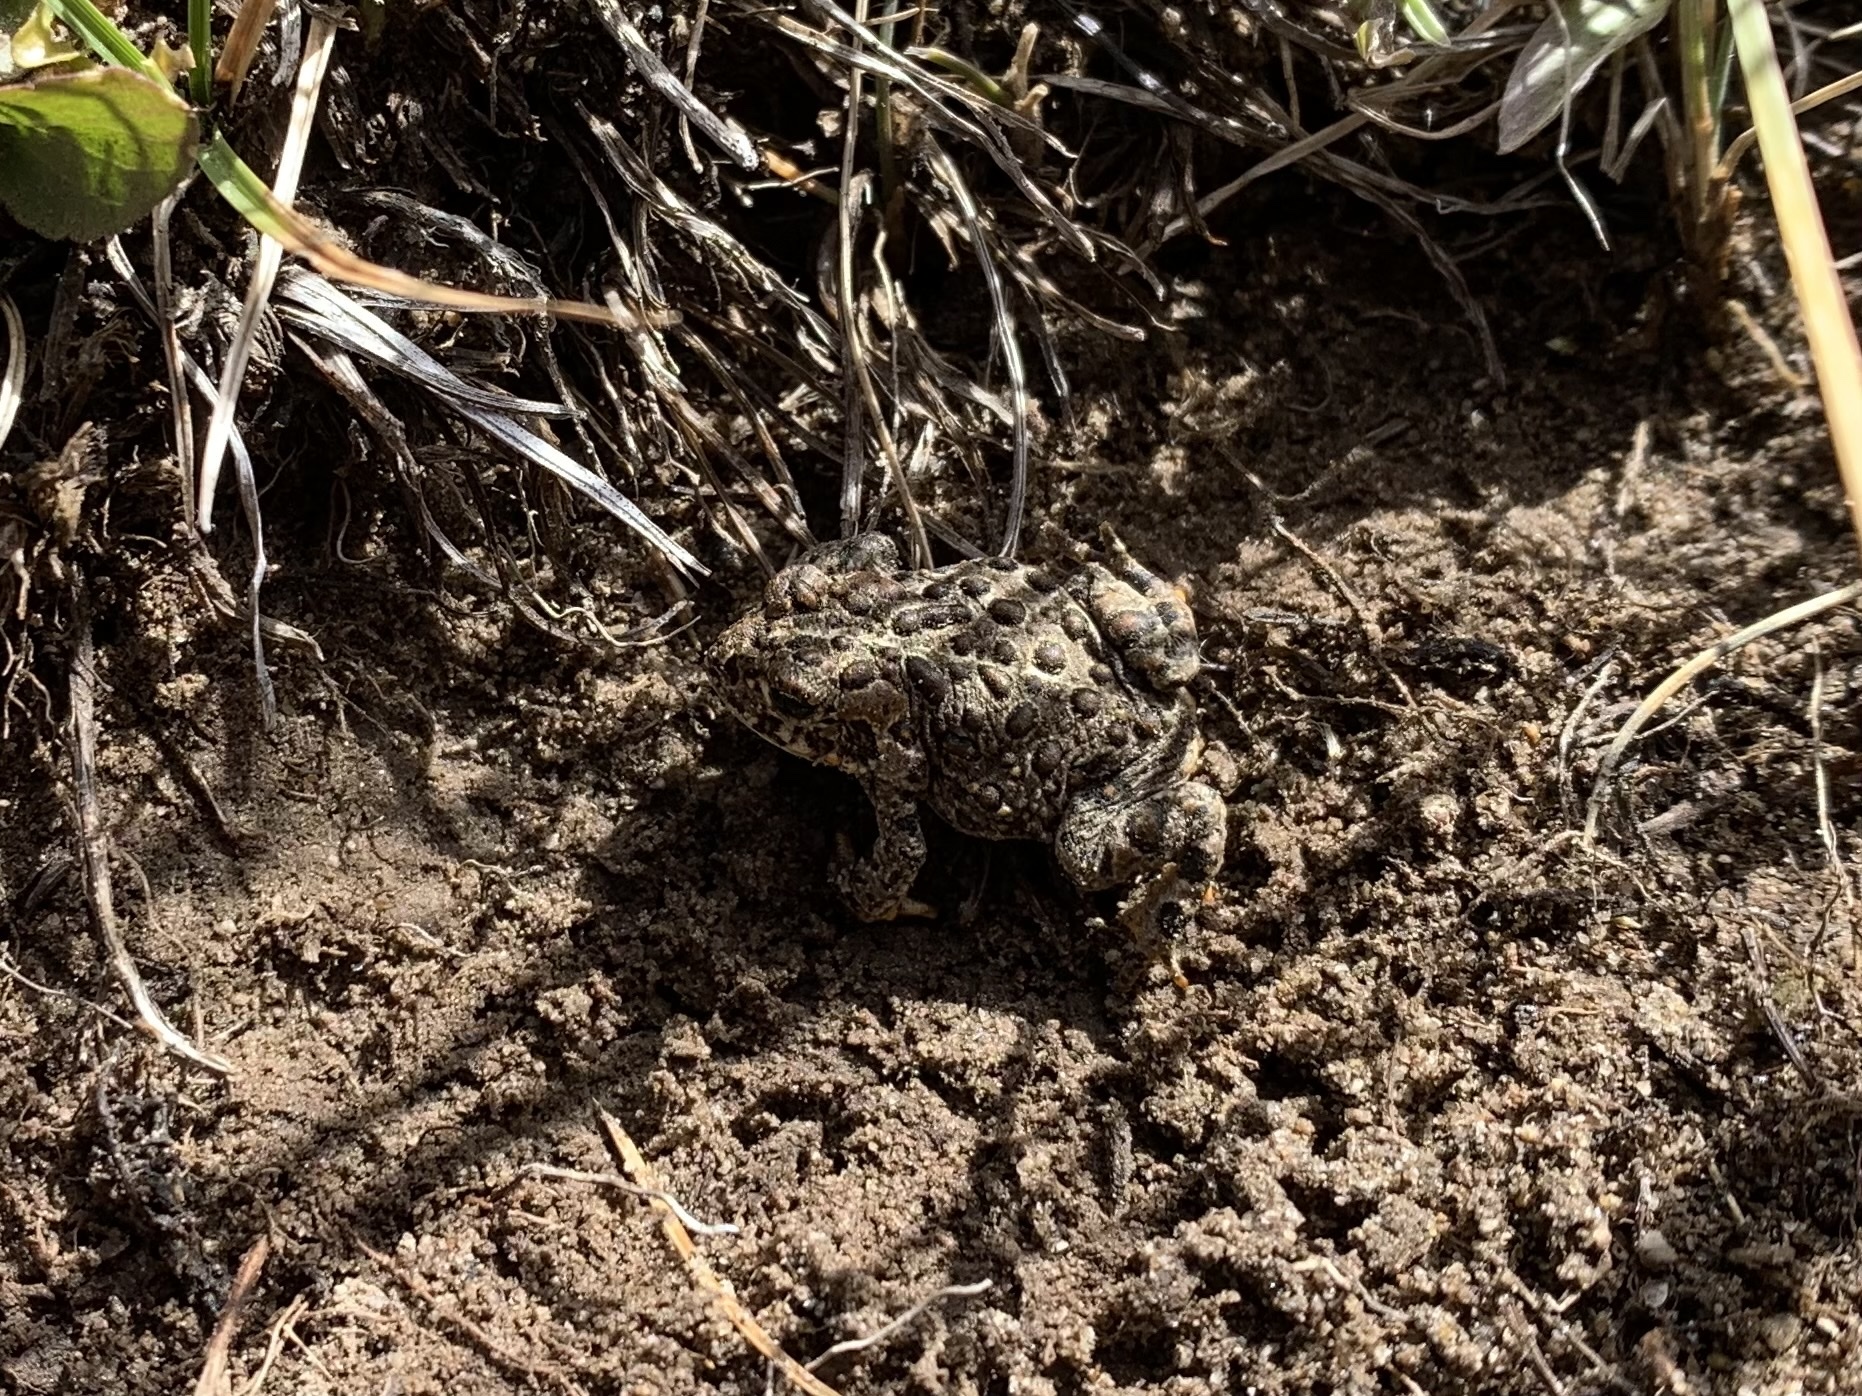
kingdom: Animalia
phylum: Chordata
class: Amphibia
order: Anura
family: Bufonidae
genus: Anaxyrus
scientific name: Anaxyrus canorus
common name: Yosemite toad
